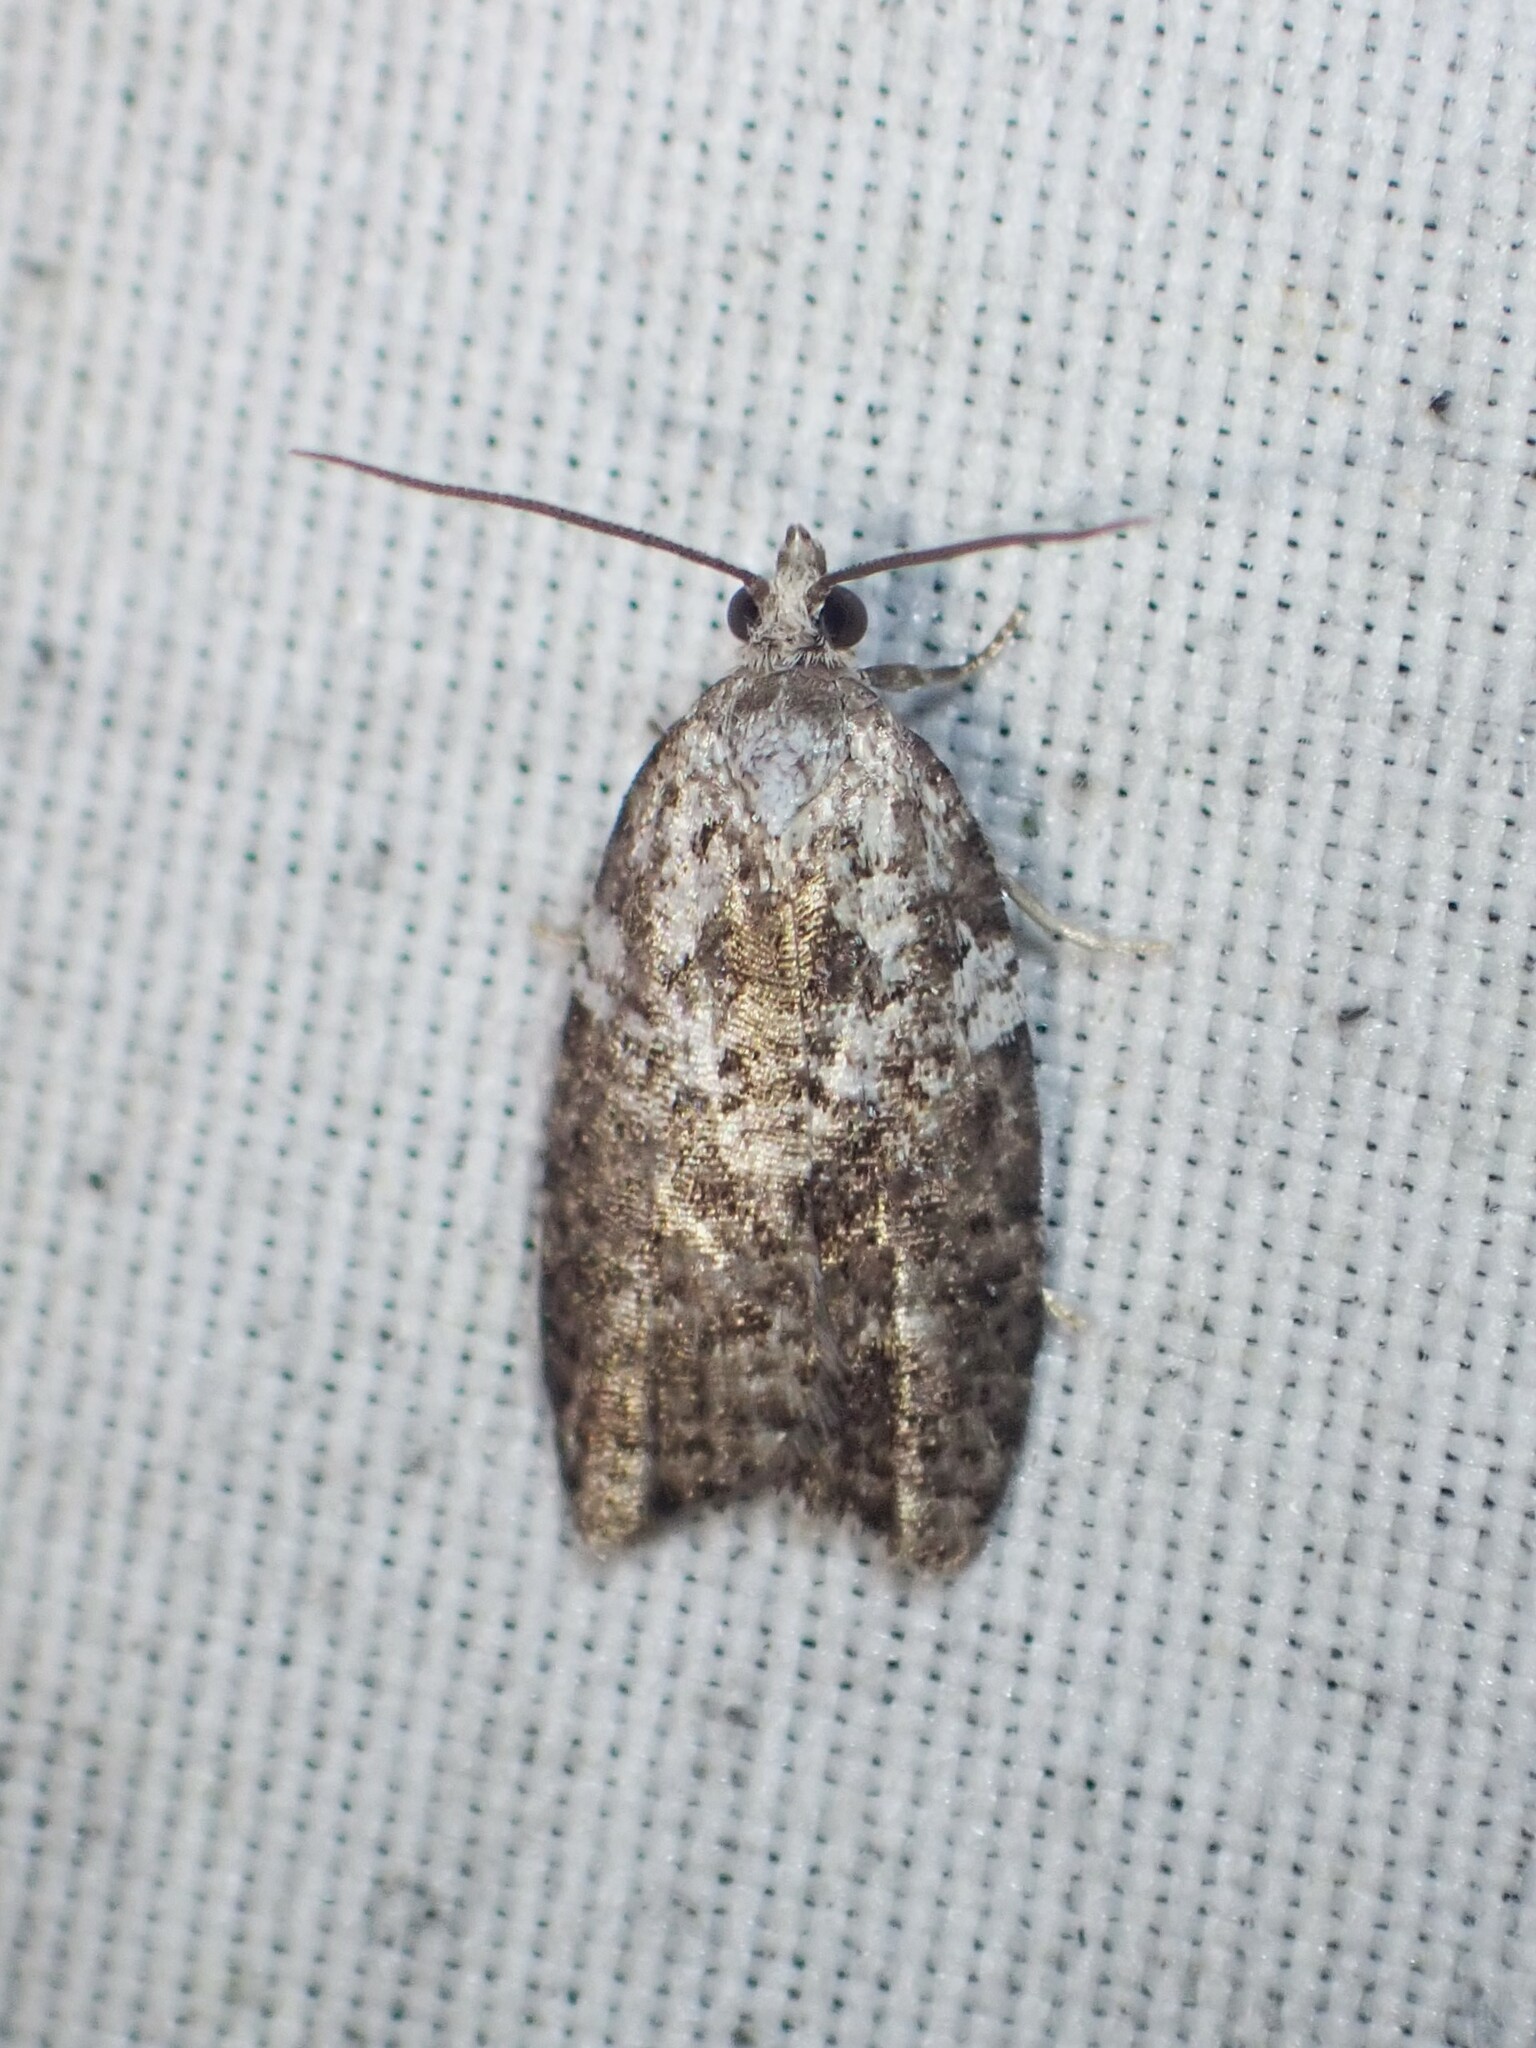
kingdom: Animalia
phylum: Arthropoda
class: Insecta
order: Lepidoptera
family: Tortricidae
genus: Acleris
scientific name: Acleris variana
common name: Eastern black-headed budworm moth
